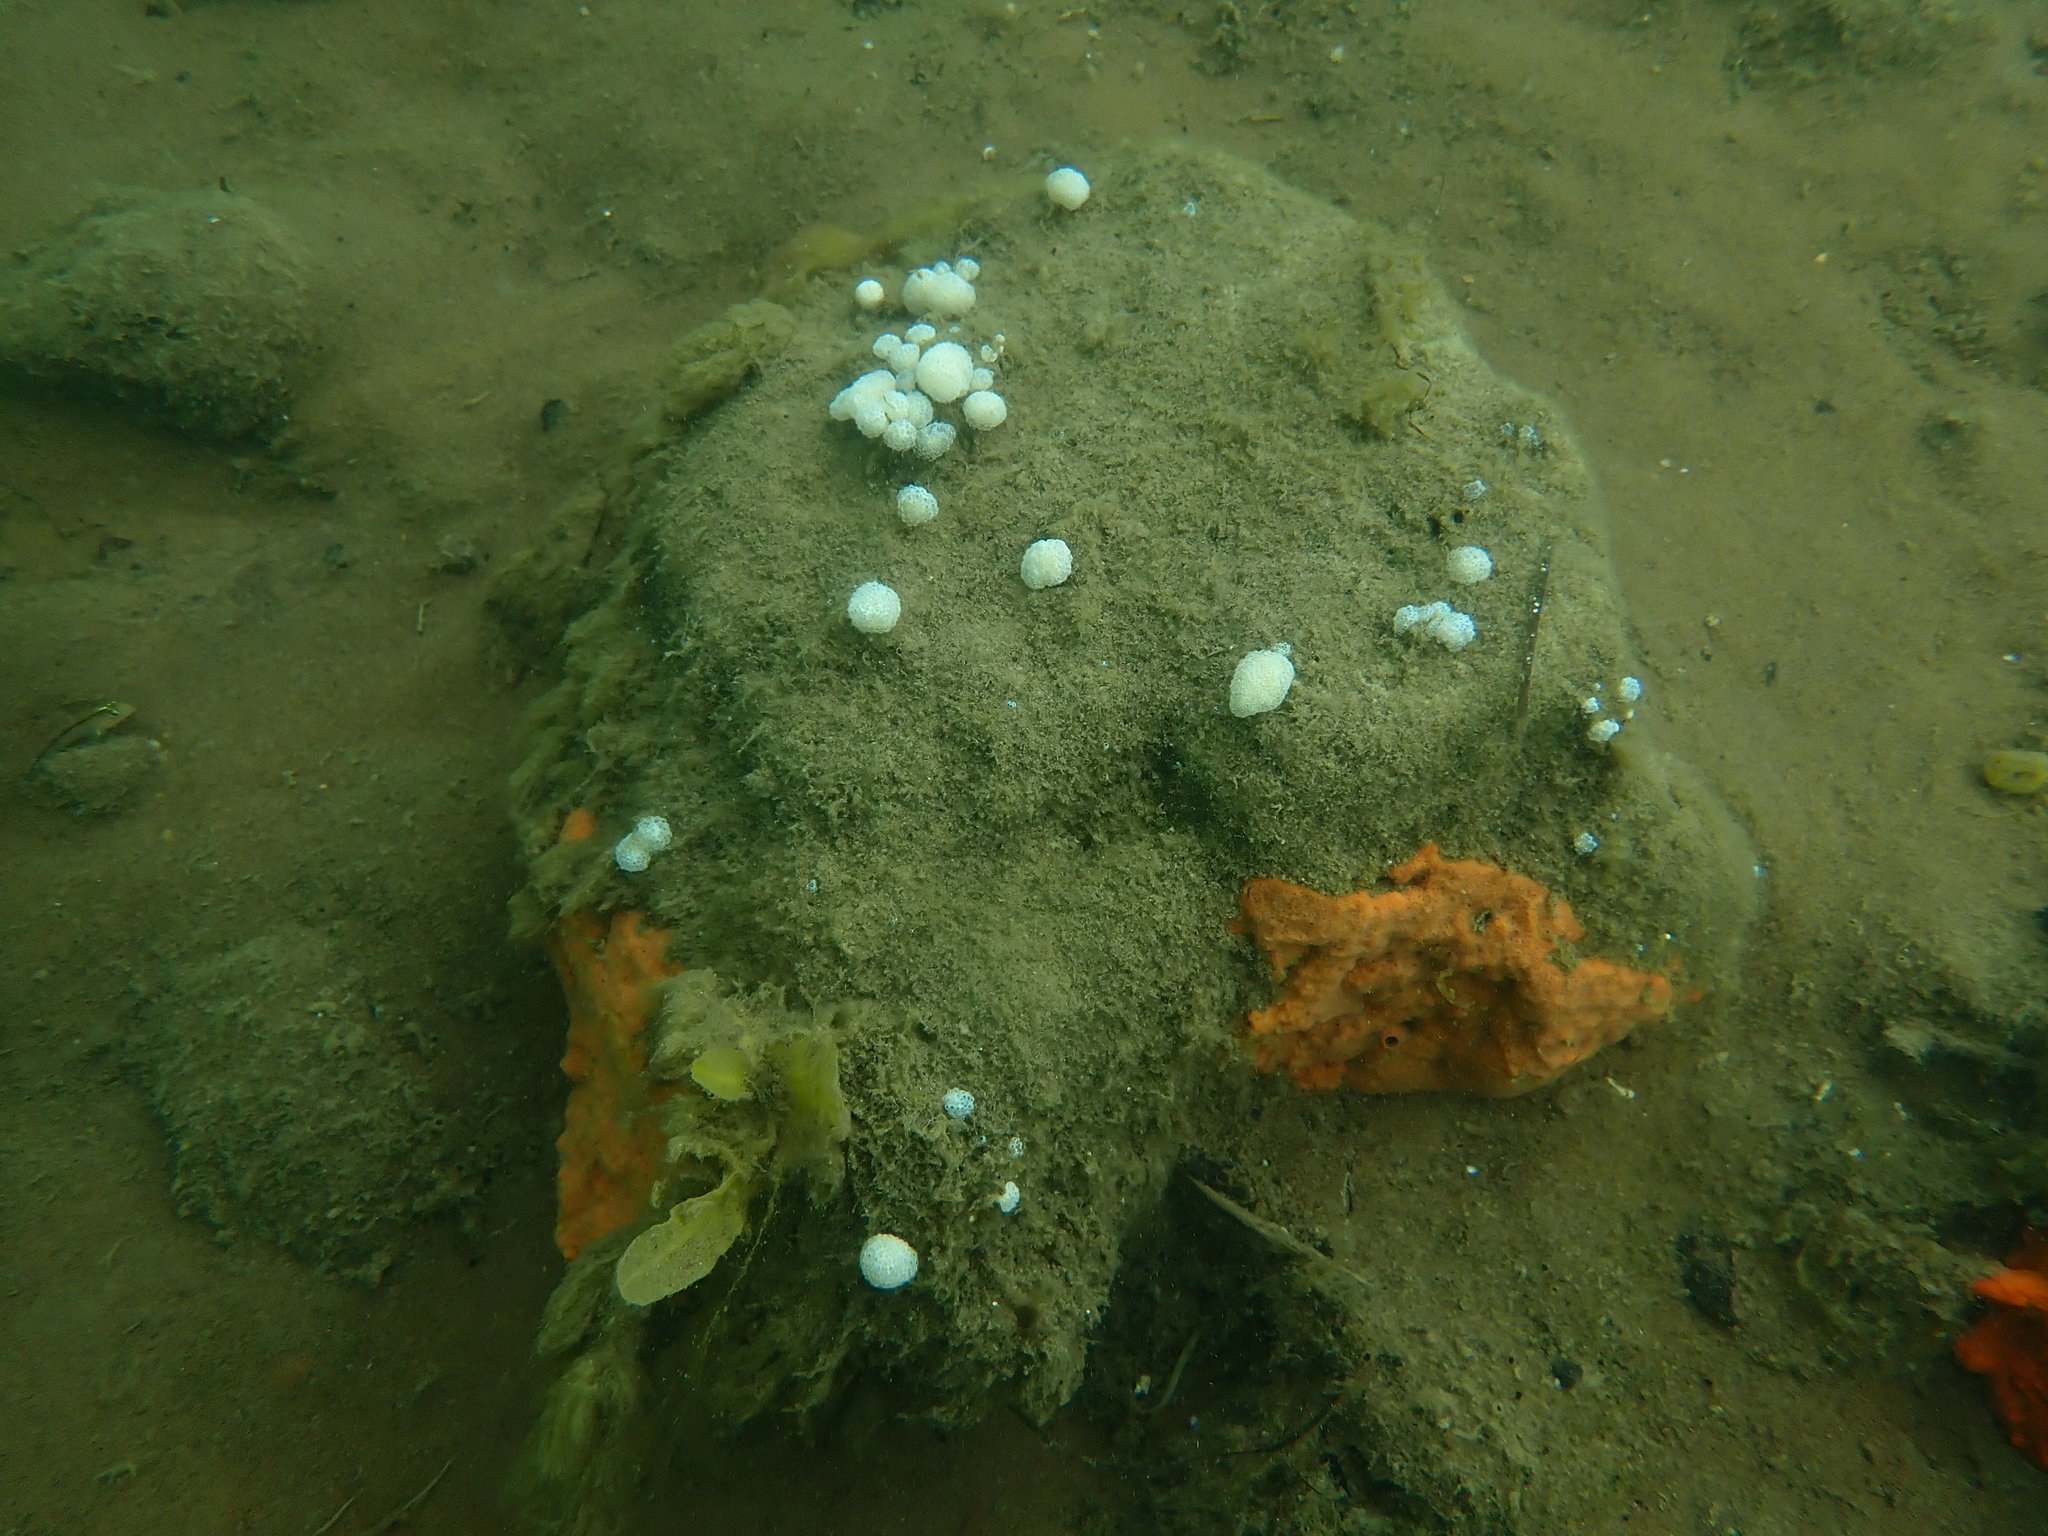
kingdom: Animalia
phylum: Chordata
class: Ascidiacea
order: Aplousobranchia
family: Polycitoridae
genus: Eudistoma
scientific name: Eudistoma elongatum
